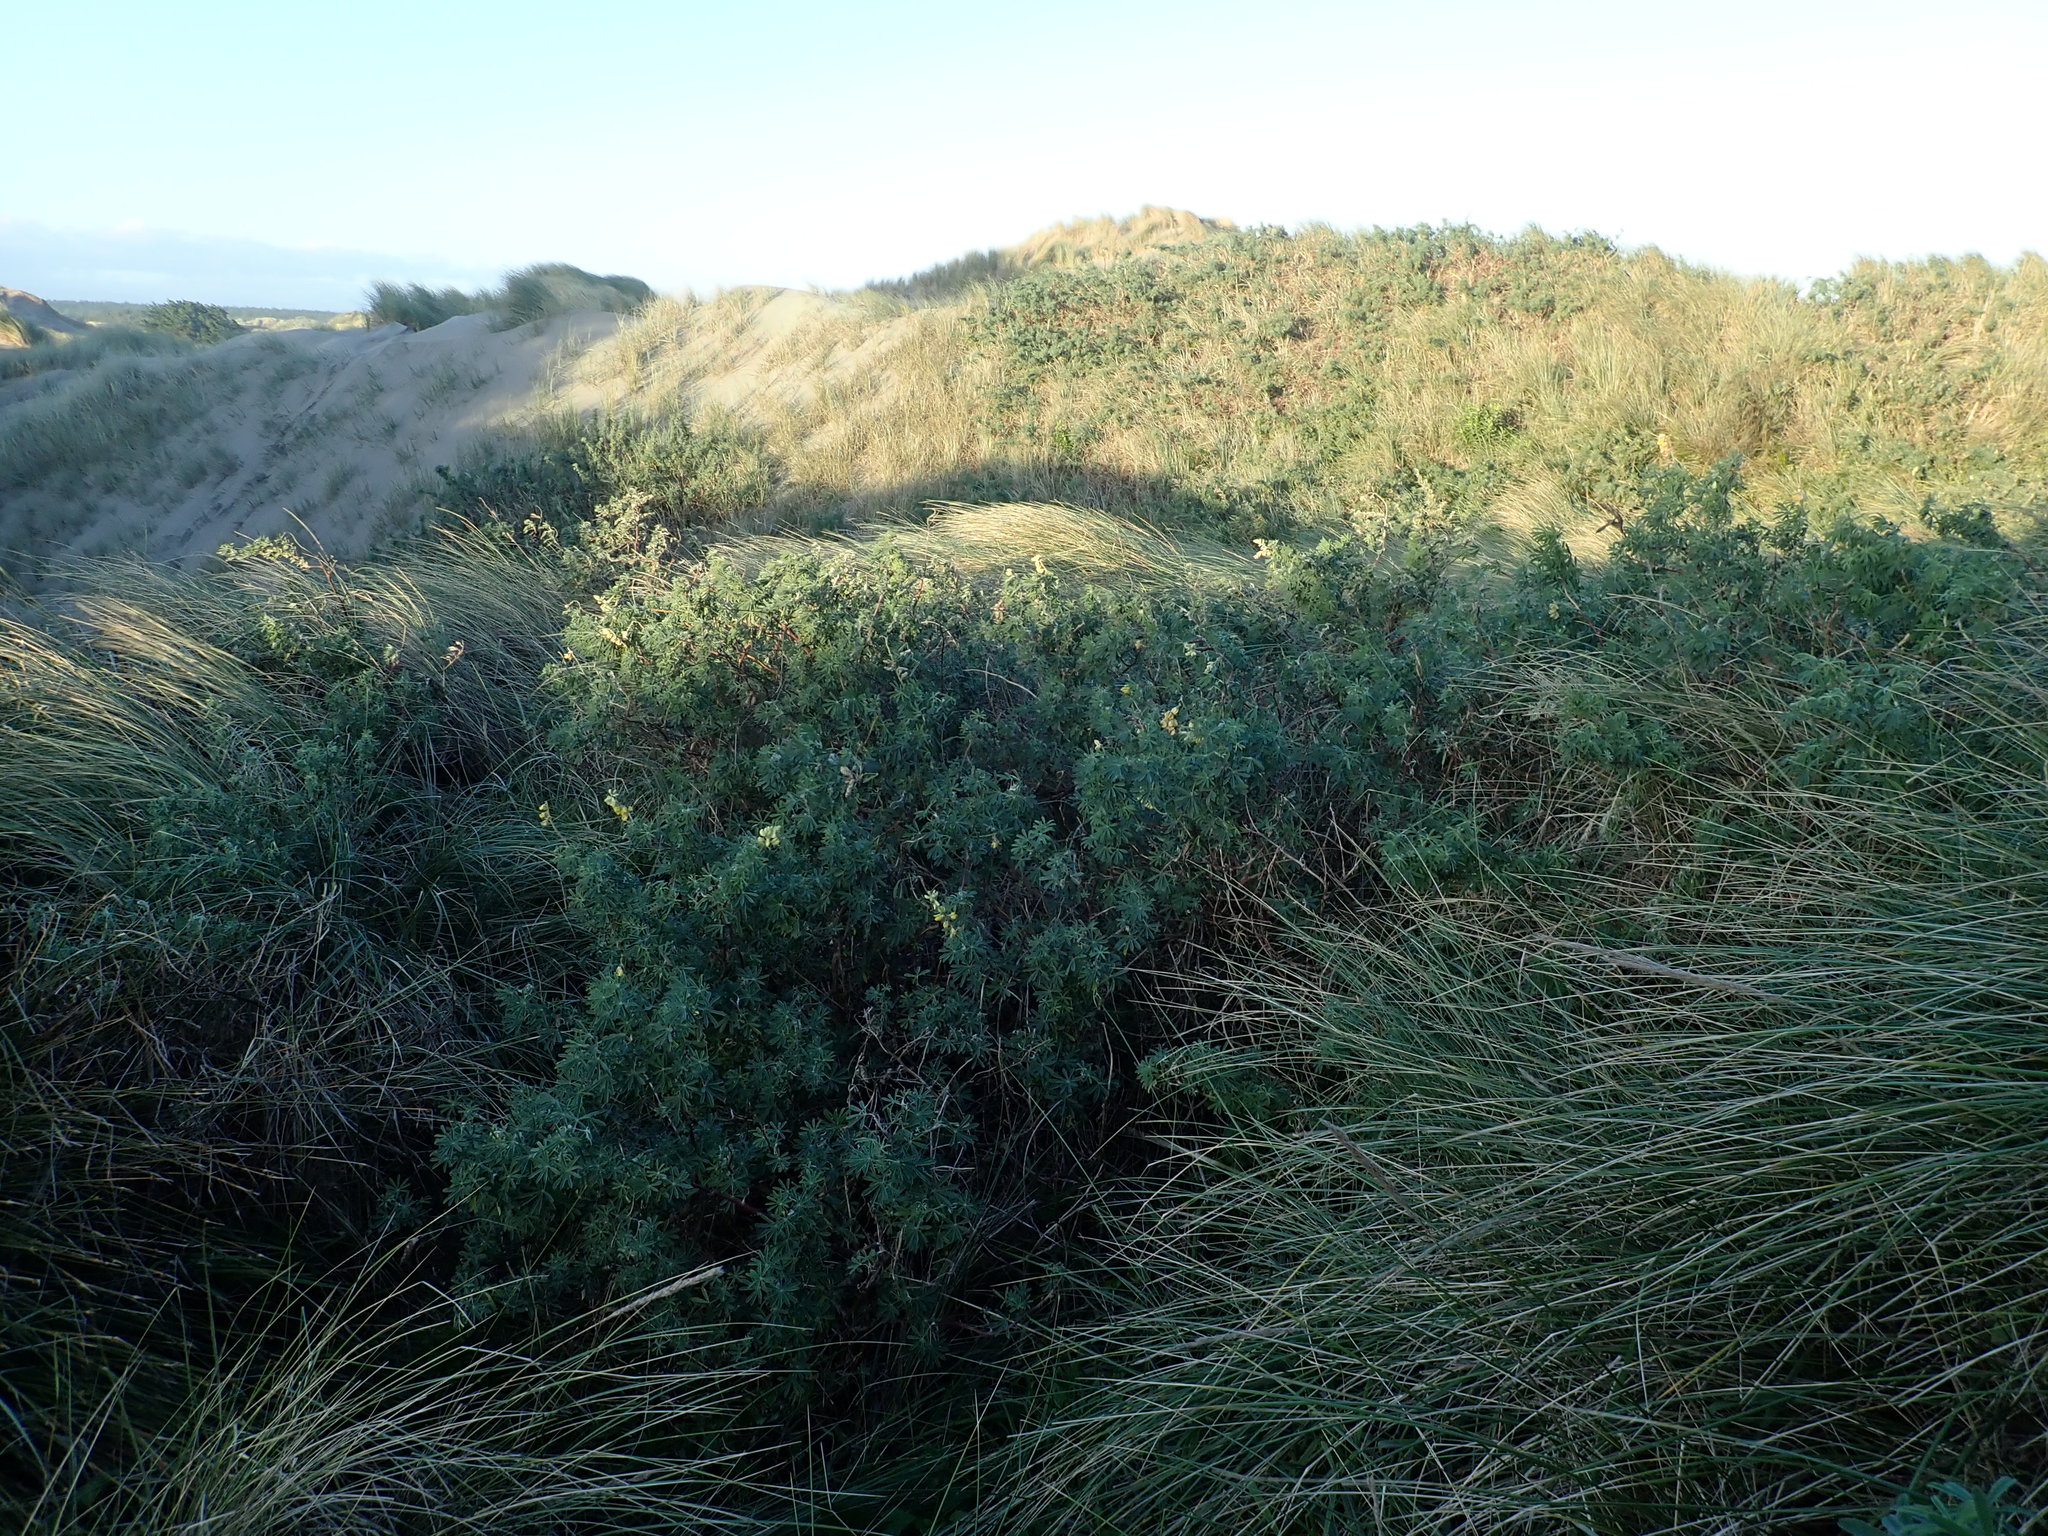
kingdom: Plantae
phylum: Tracheophyta
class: Magnoliopsida
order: Fabales
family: Fabaceae
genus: Lupinus
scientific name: Lupinus arboreus
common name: Yellow bush lupine
